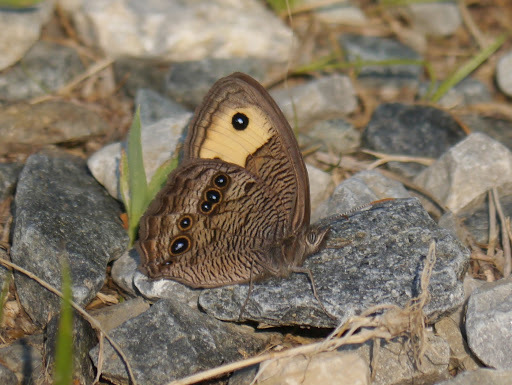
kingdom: Animalia
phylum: Arthropoda
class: Insecta
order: Lepidoptera
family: Nymphalidae
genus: Cercyonis
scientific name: Cercyonis pegala
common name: Common wood-nymph
